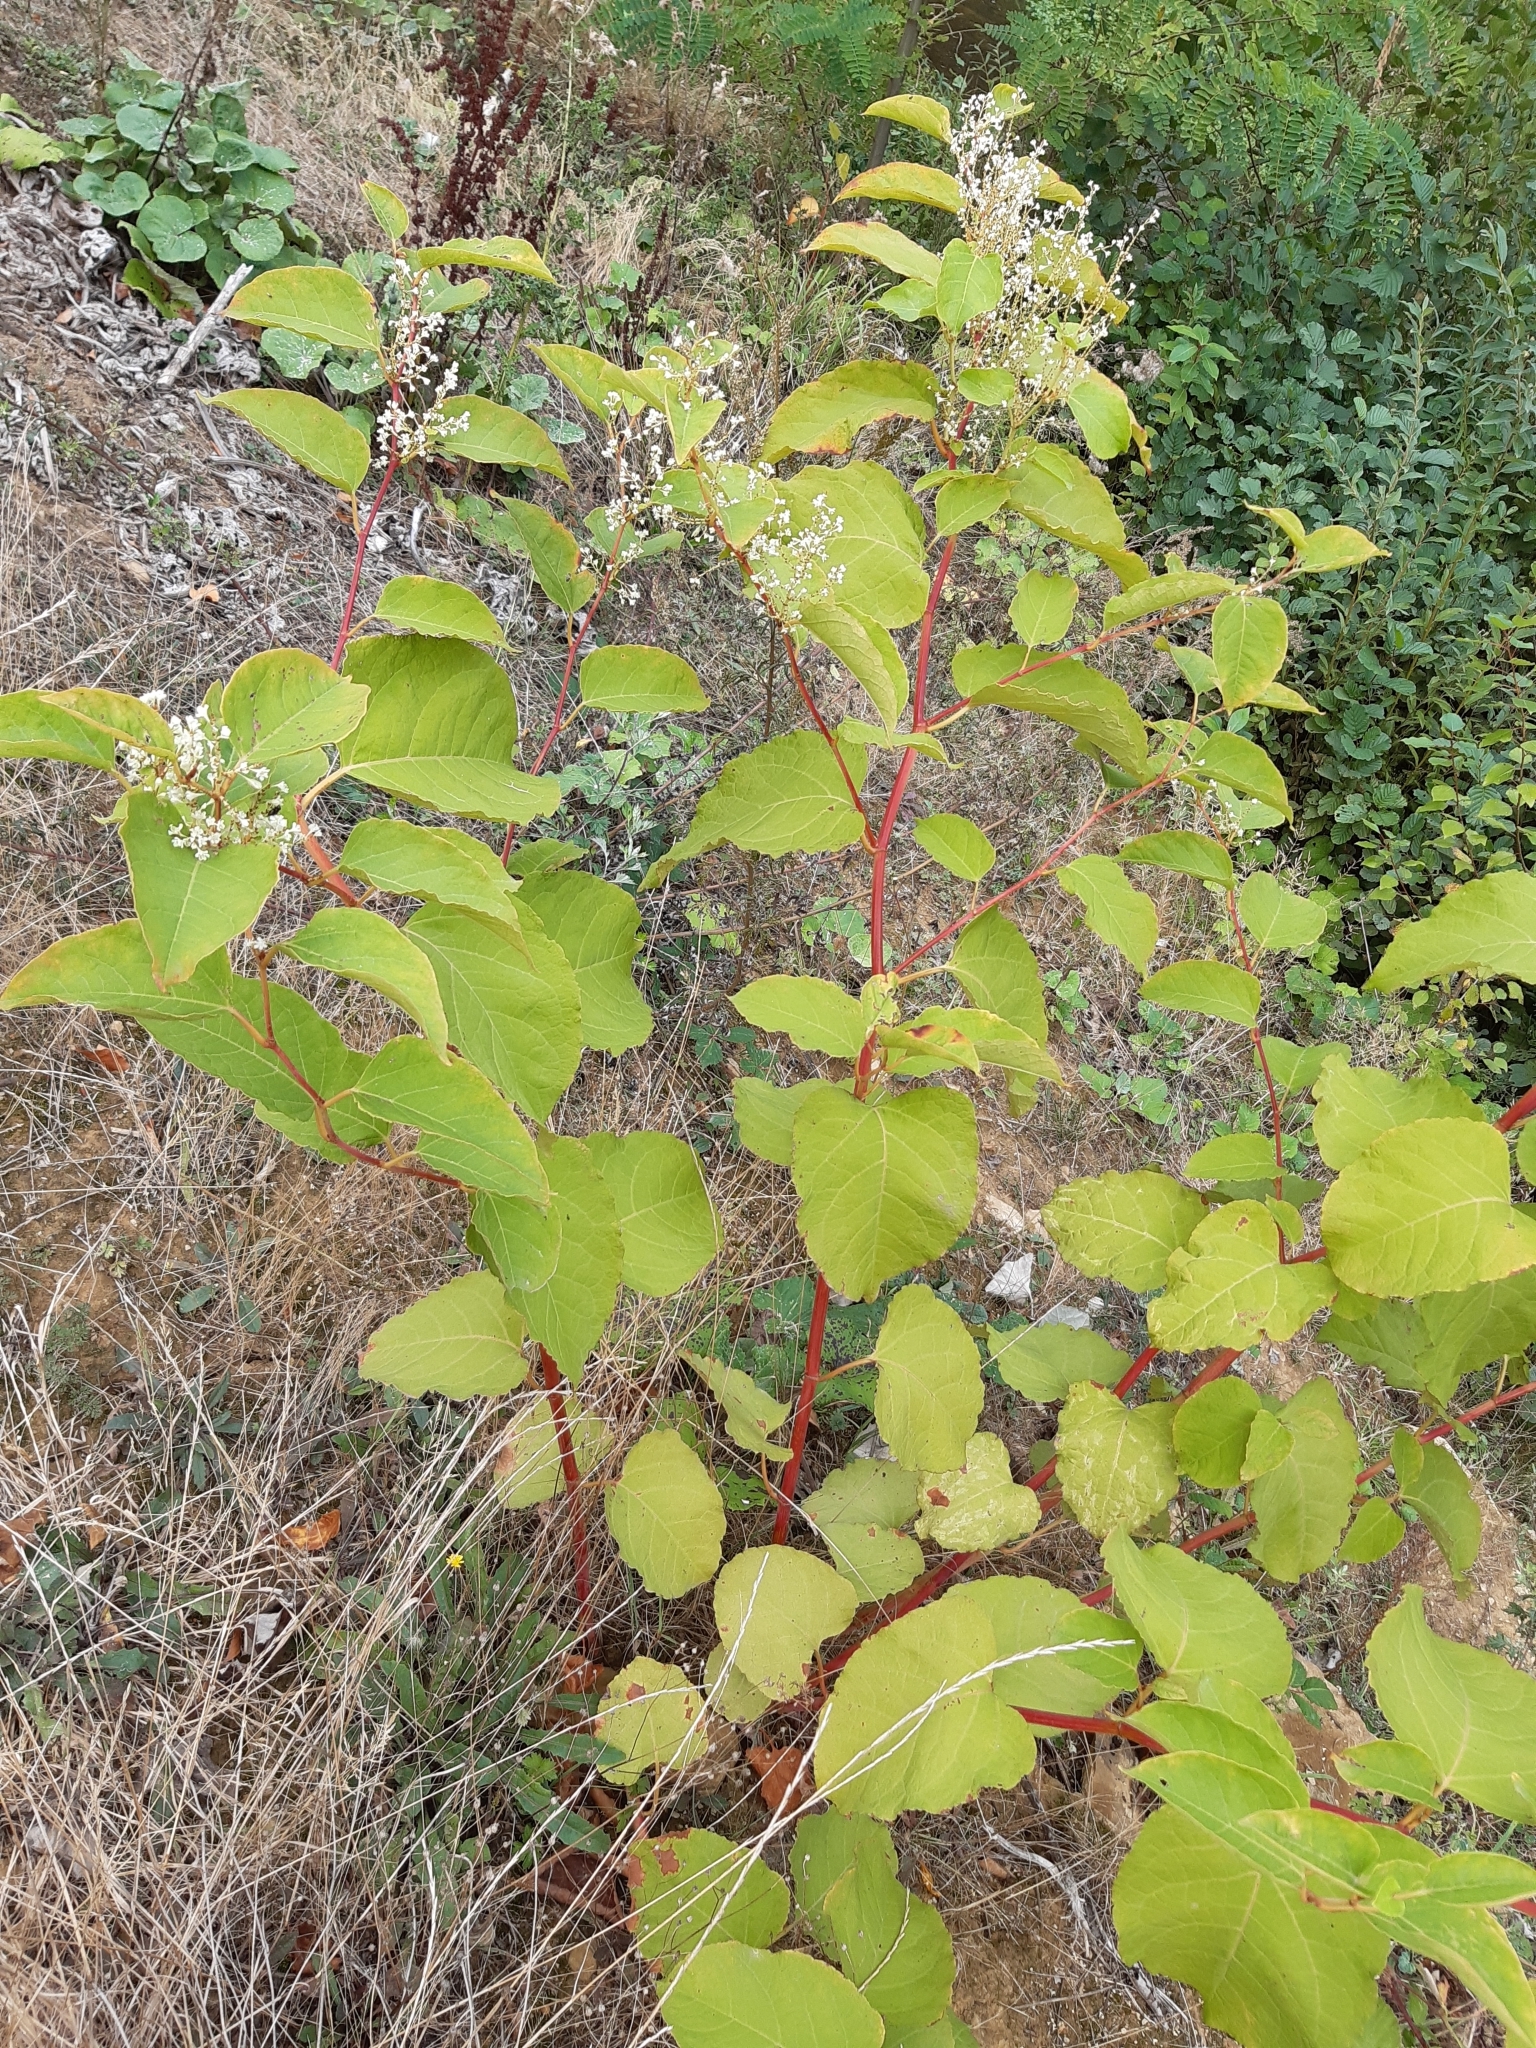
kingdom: Plantae
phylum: Tracheophyta
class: Magnoliopsida
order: Caryophyllales
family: Polygonaceae
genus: Reynoutria
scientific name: Reynoutria japonica
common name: Japanese knotweed
